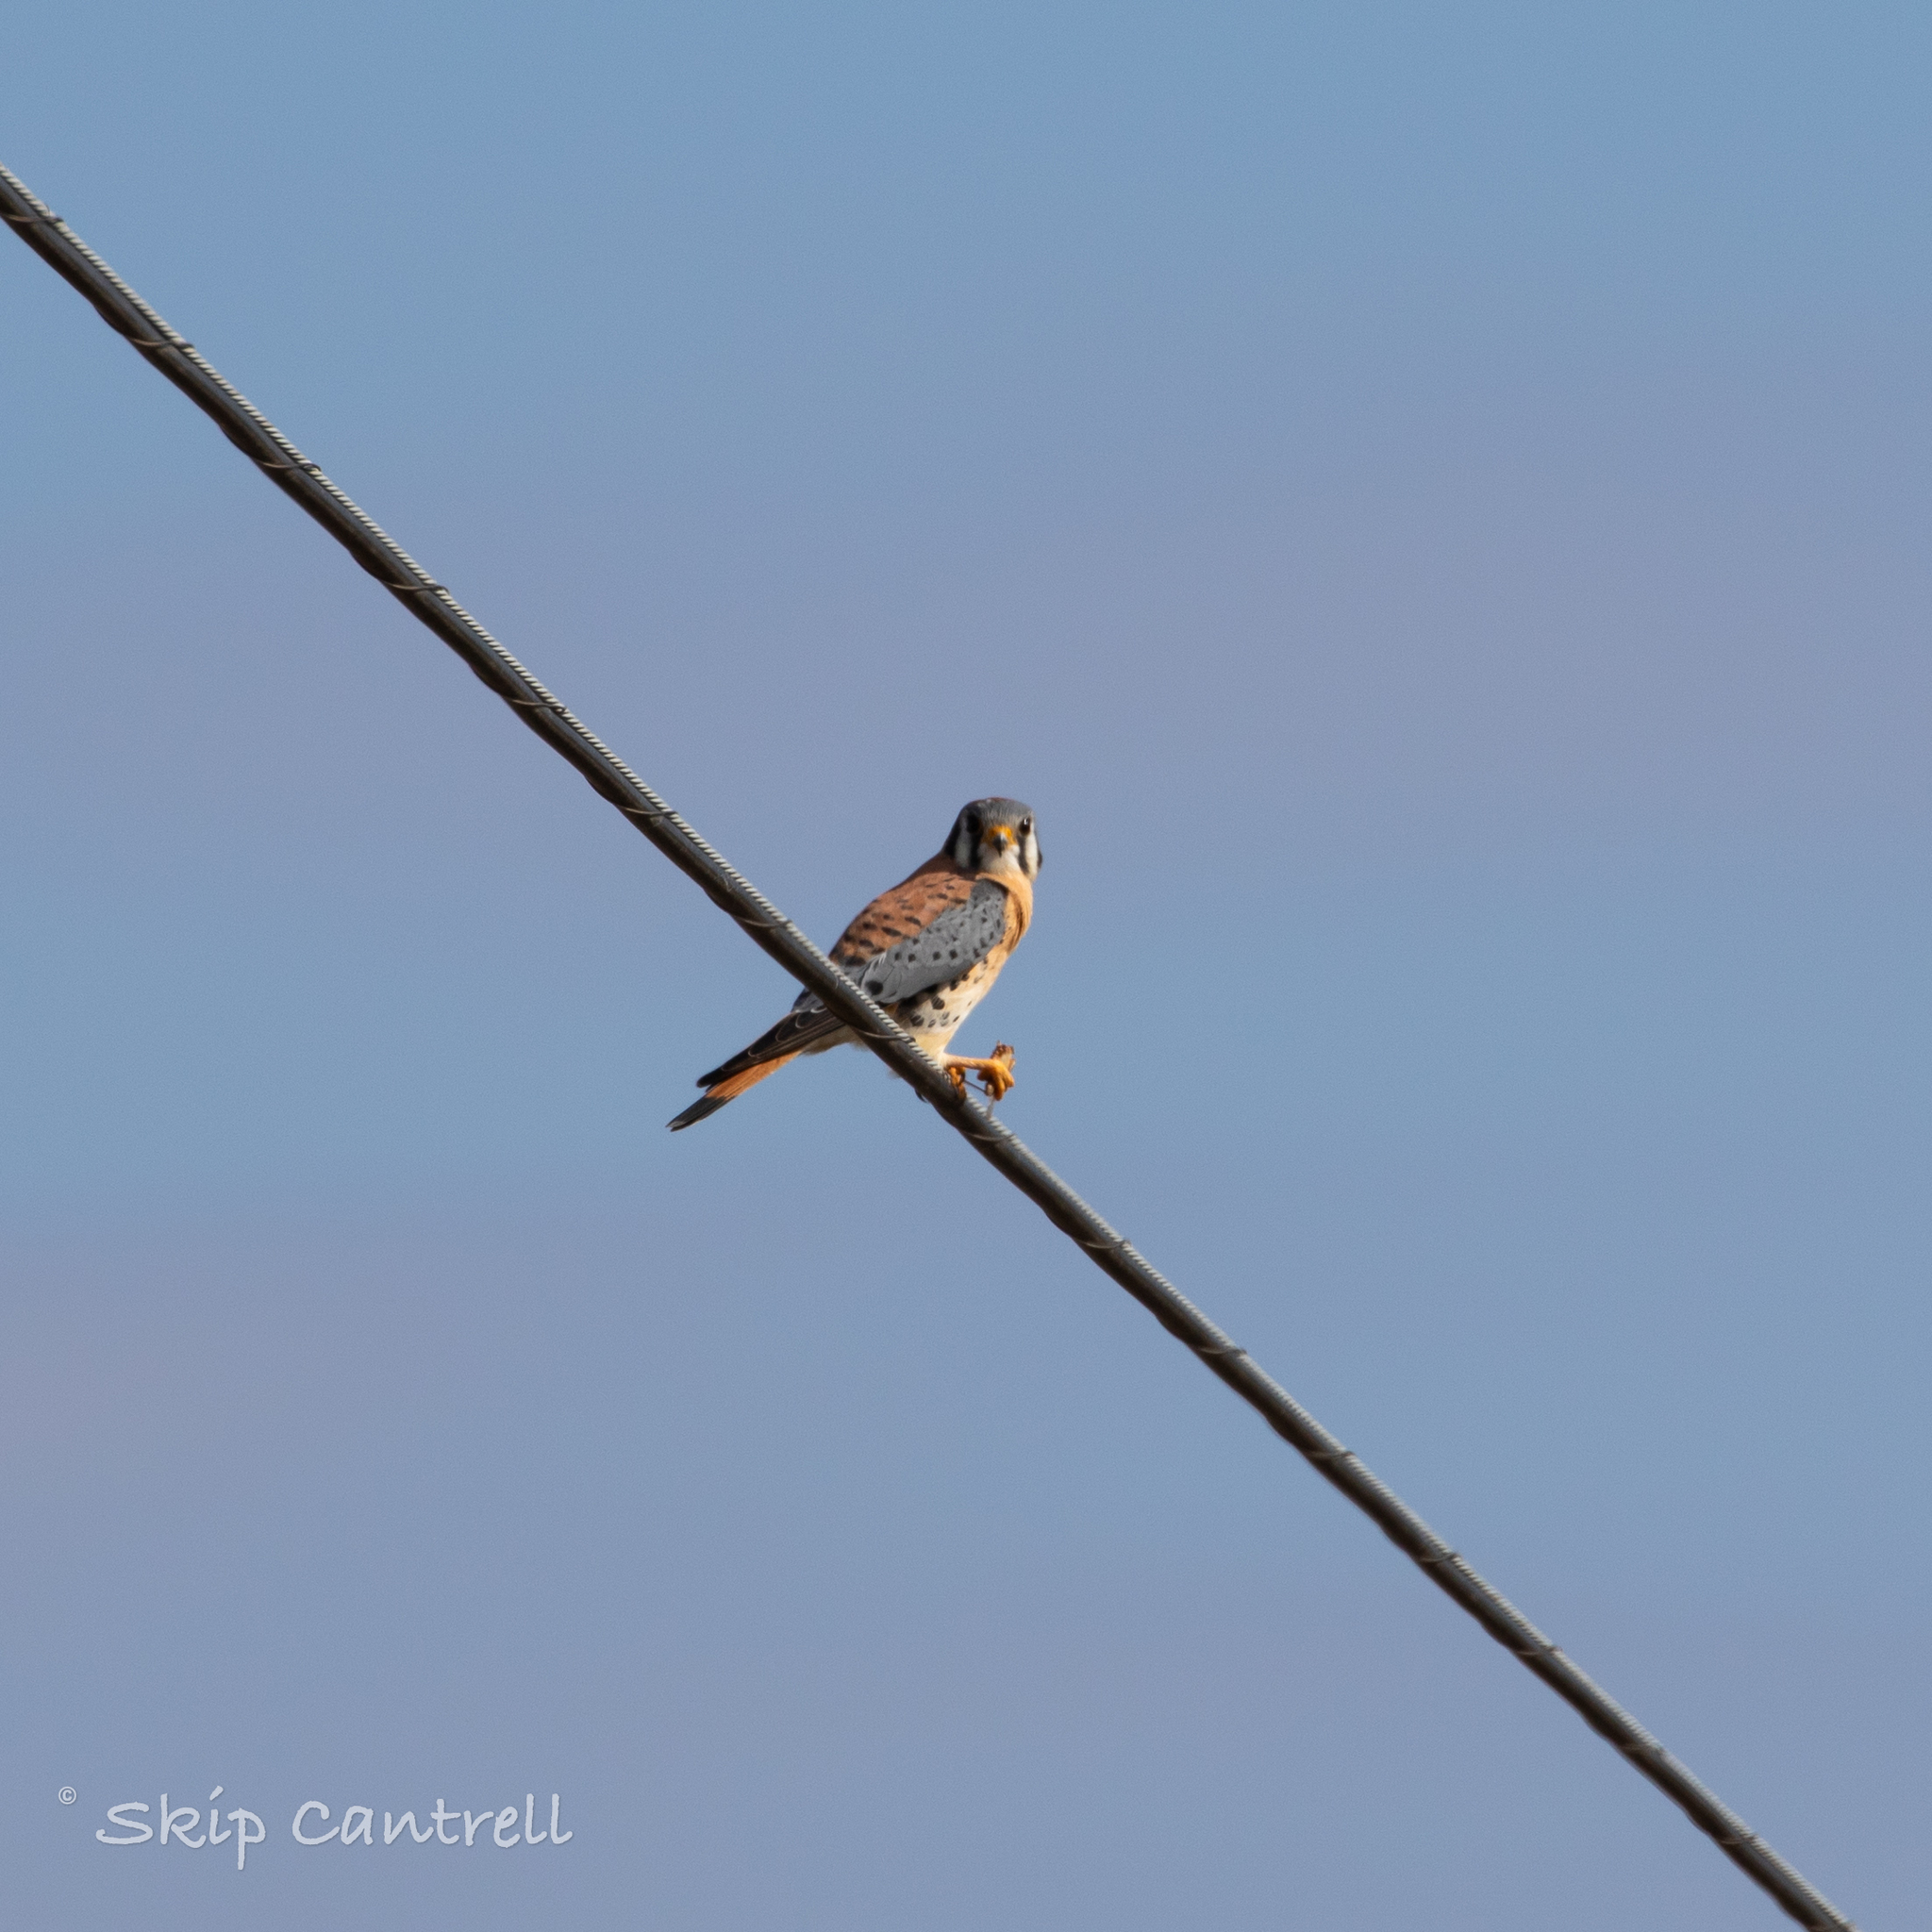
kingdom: Animalia
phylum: Chordata
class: Aves
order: Falconiformes
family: Falconidae
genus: Falco
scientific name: Falco sparverius
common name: American kestrel
